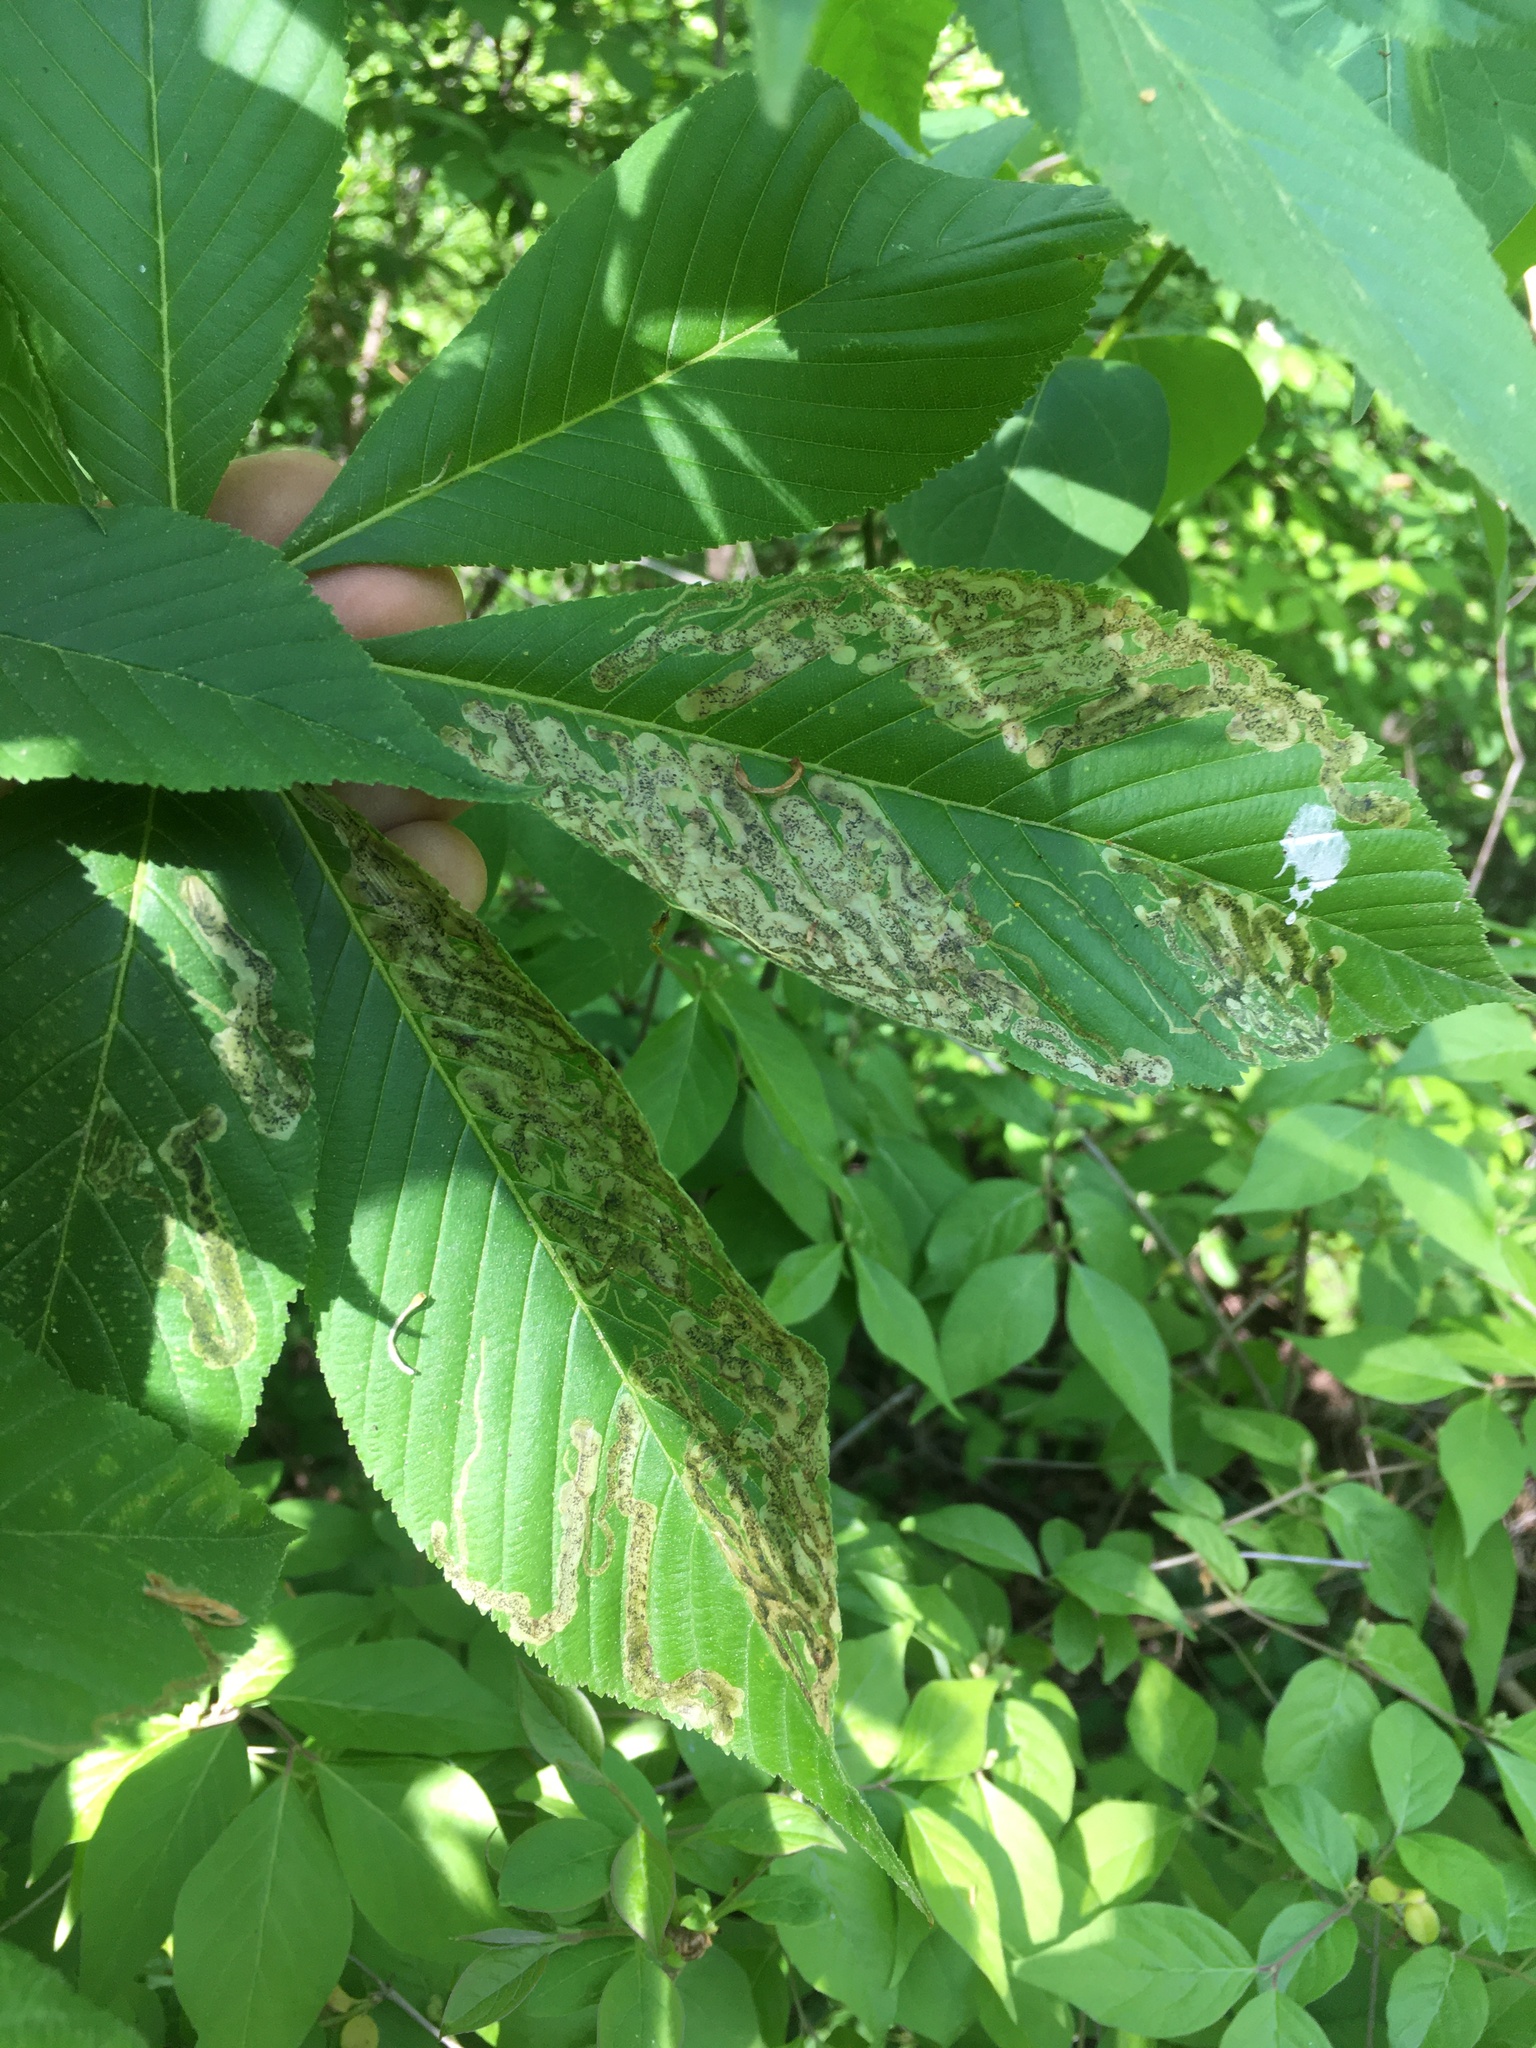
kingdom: Animalia
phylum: Arthropoda
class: Insecta
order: Diptera
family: Agromyzidae
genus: Phytomyza
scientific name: Phytomyza aesculi
